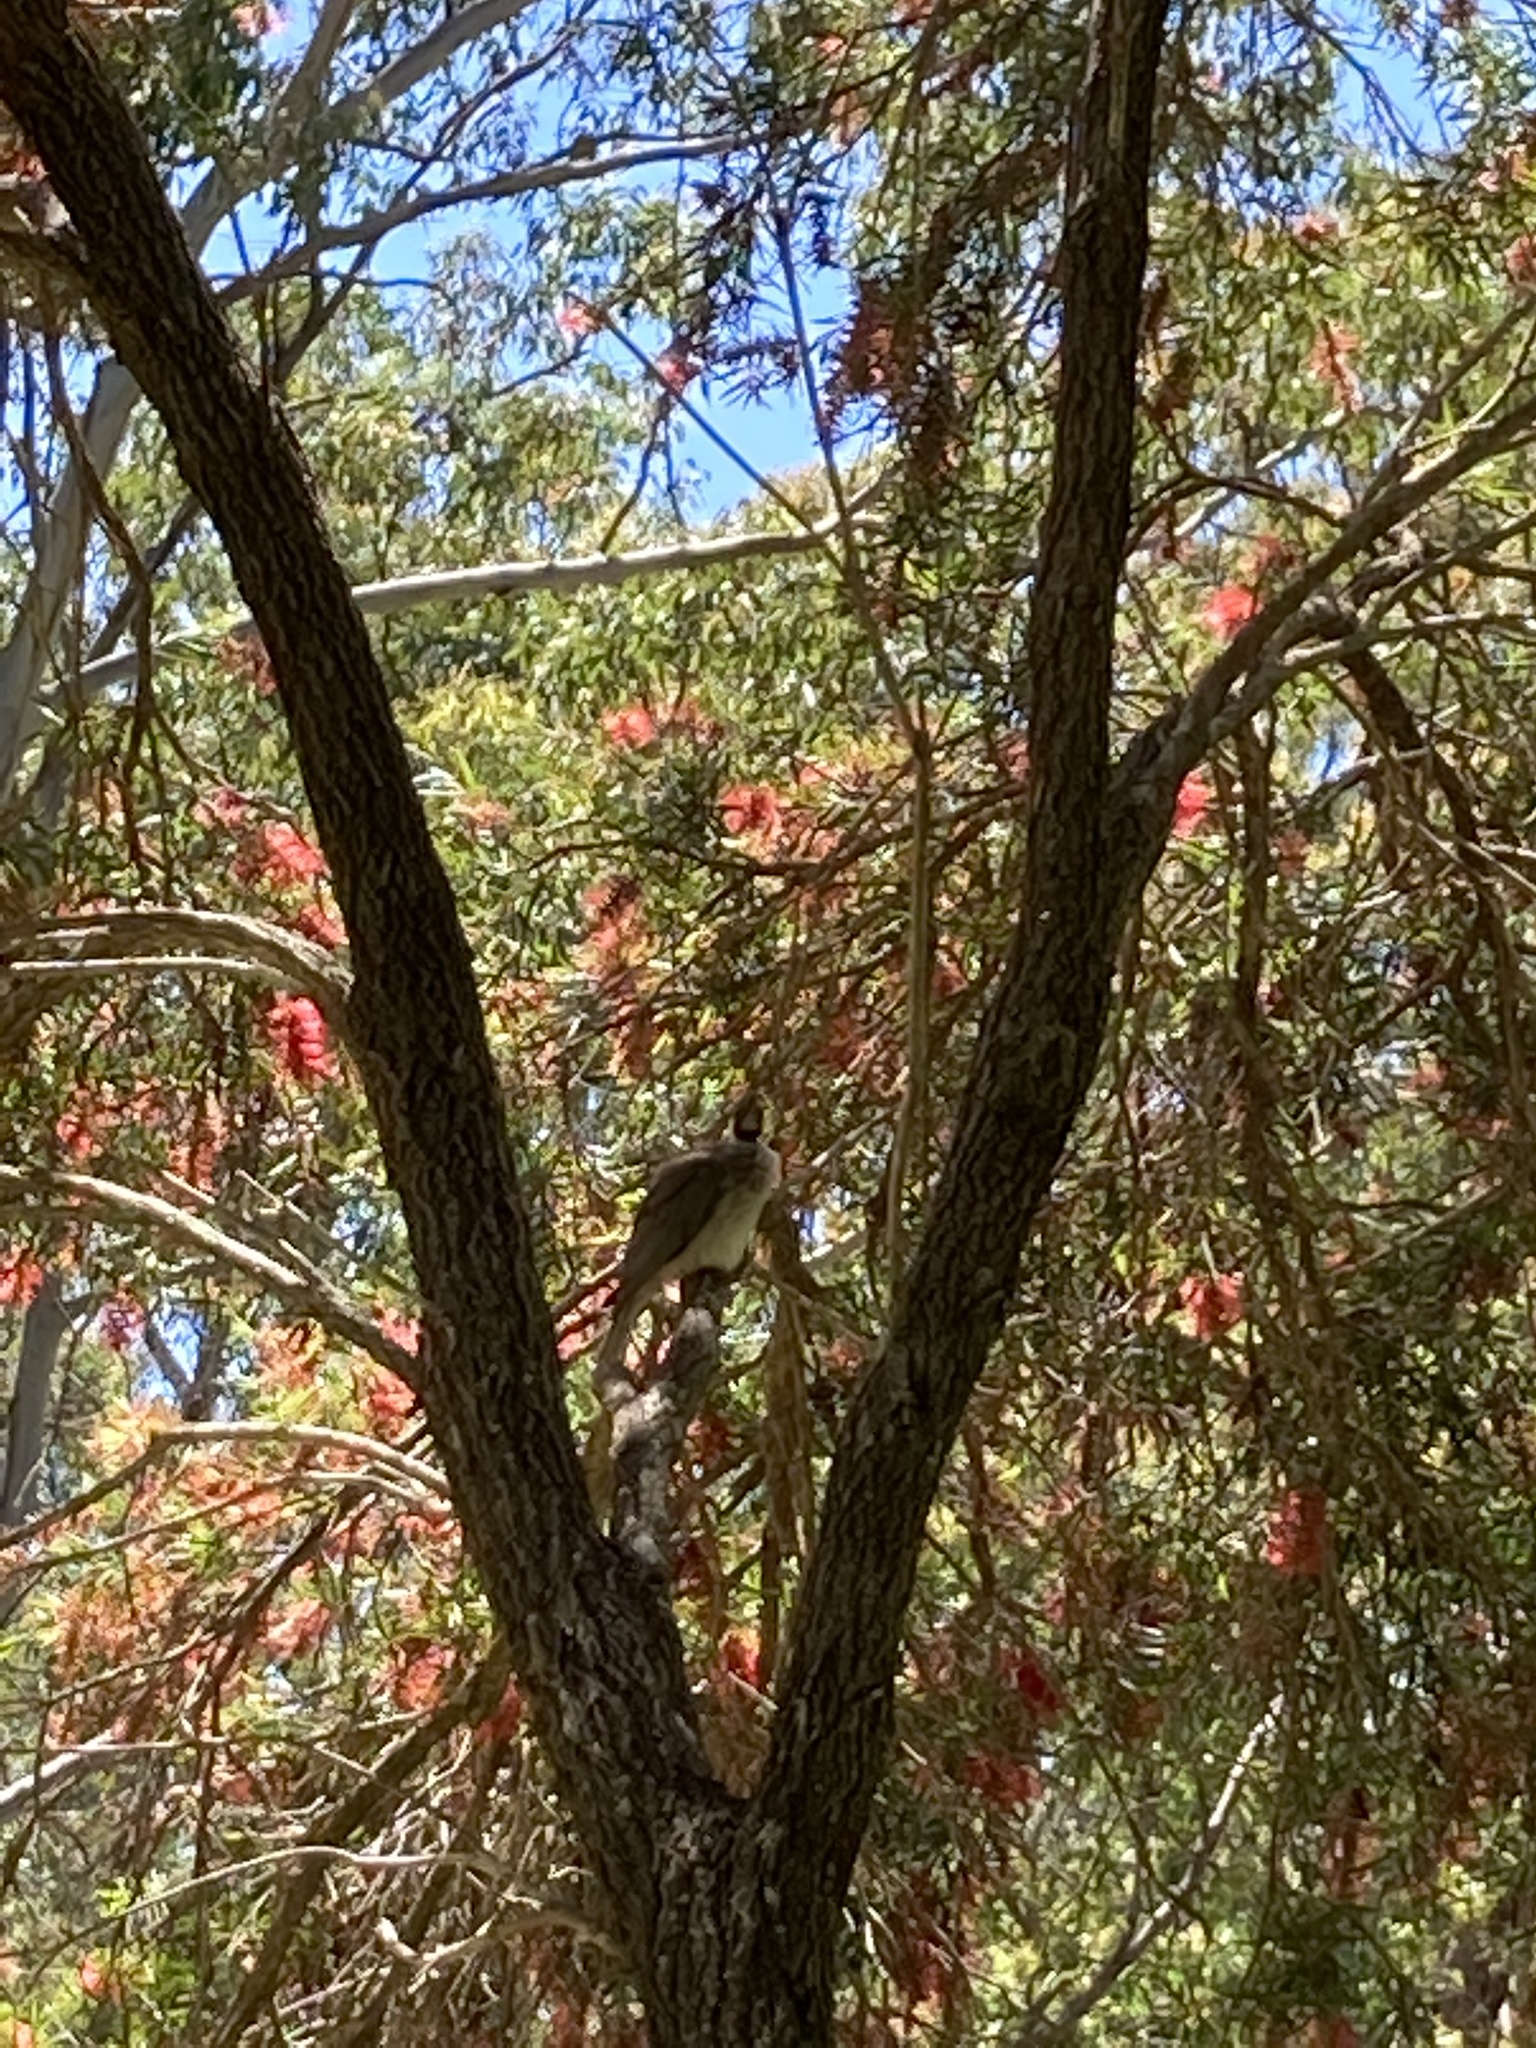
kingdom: Animalia
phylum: Chordata
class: Aves
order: Passeriformes
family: Meliphagidae
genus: Philemon
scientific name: Philemon corniculatus
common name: Noisy friarbird
